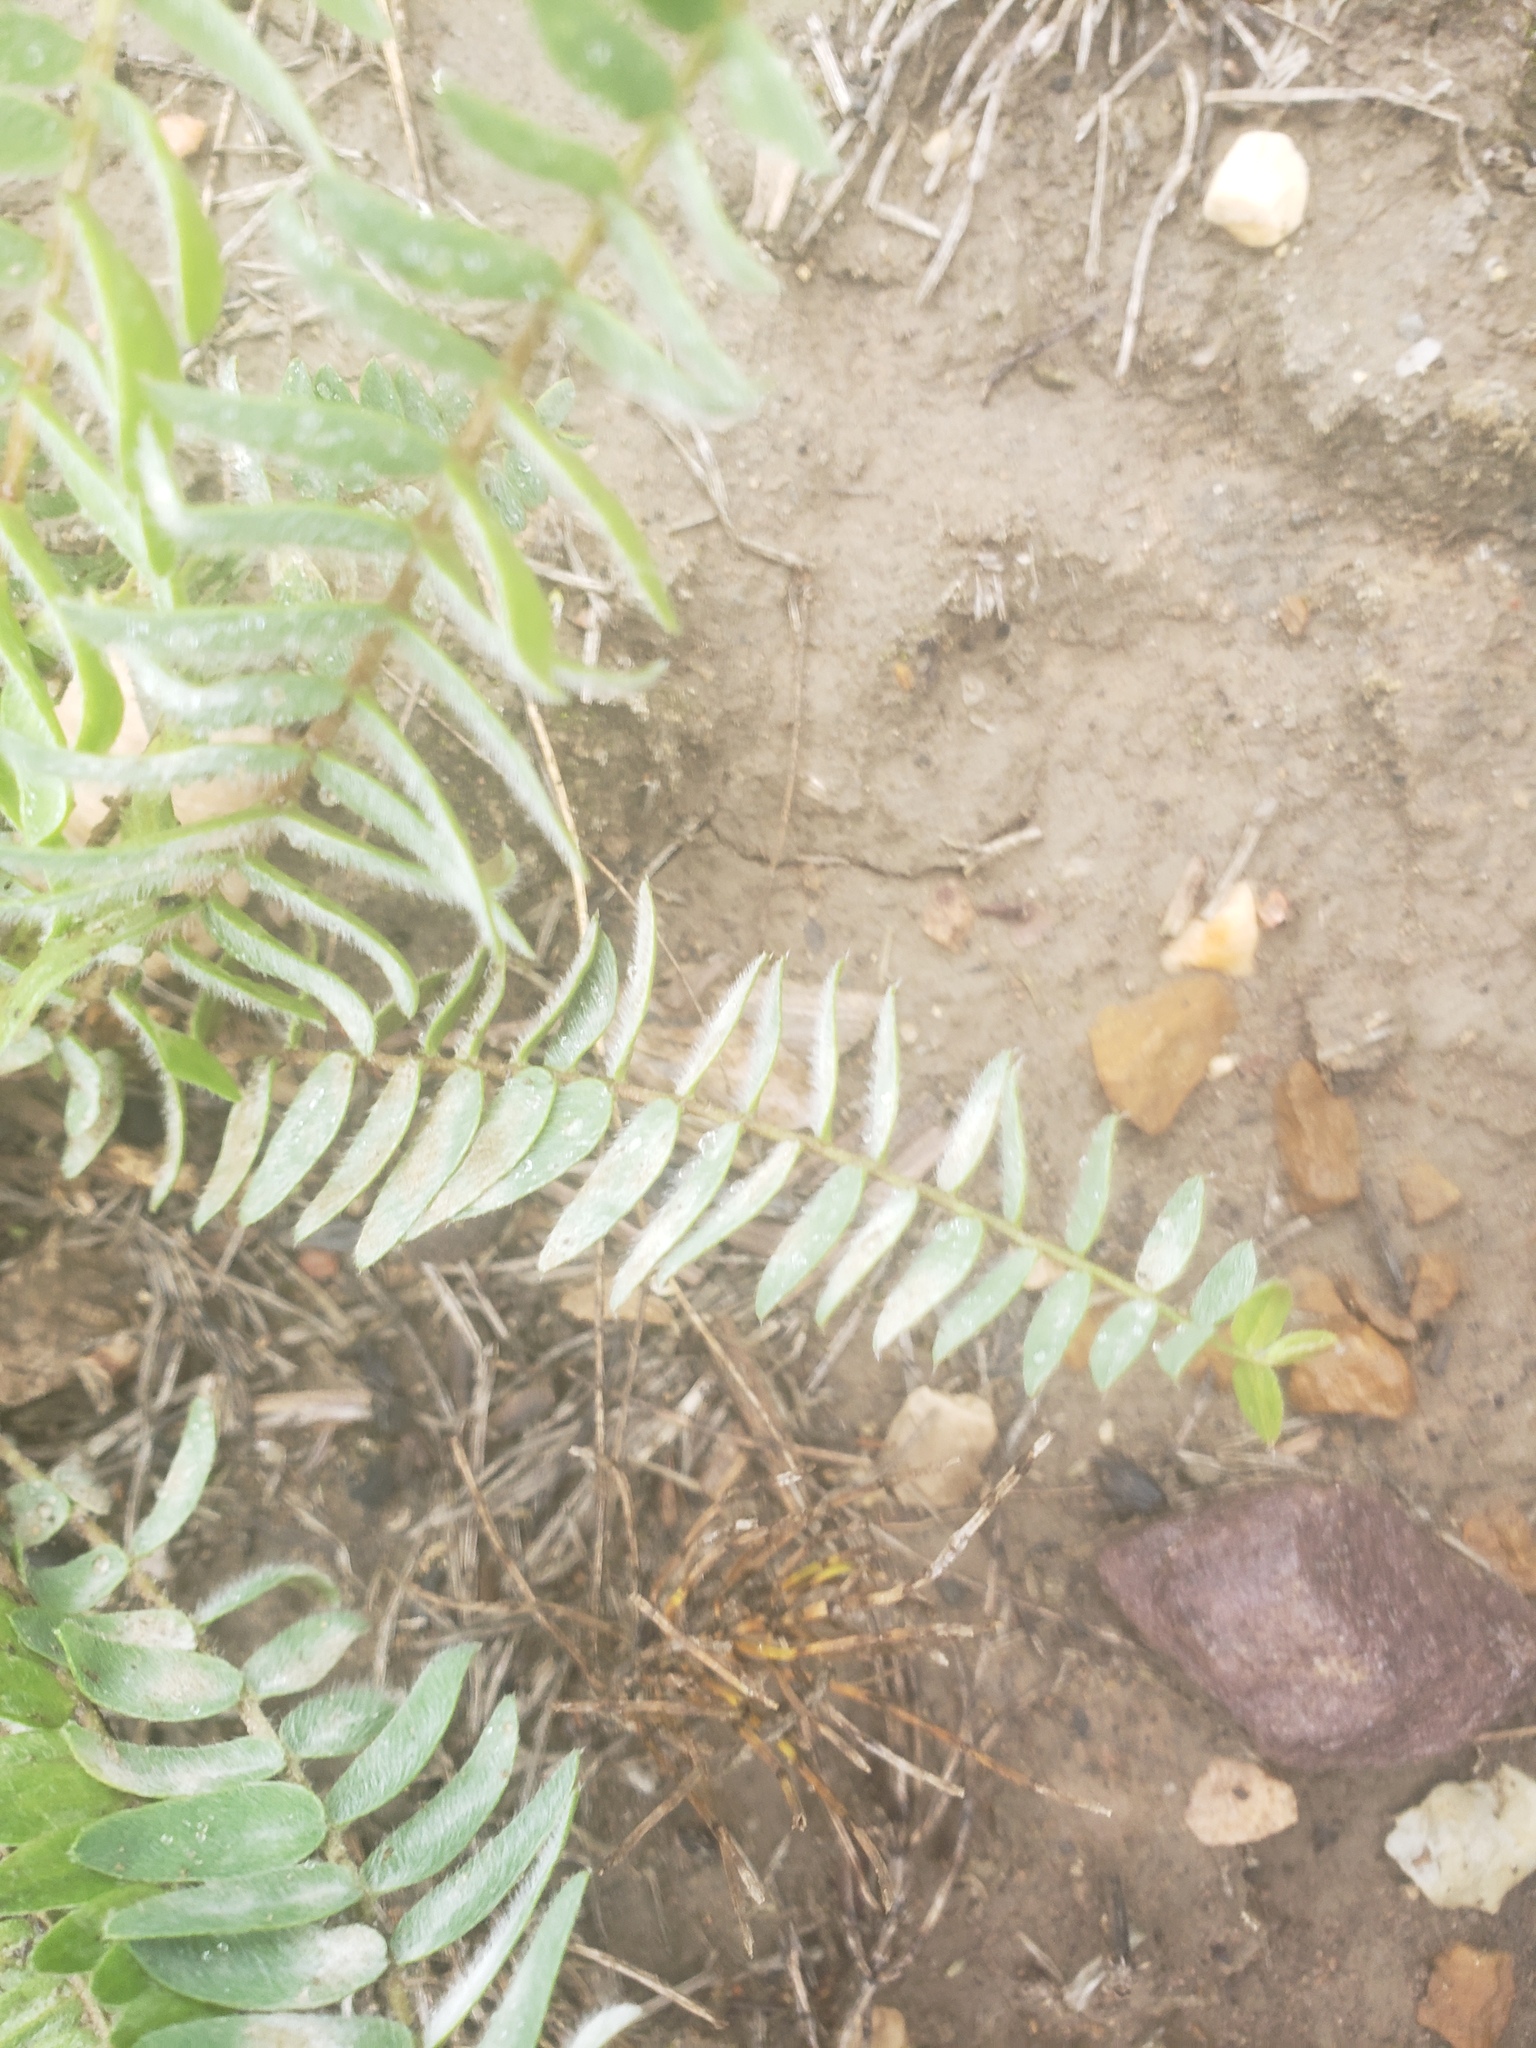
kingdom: Plantae
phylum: Tracheophyta
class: Magnoliopsida
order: Fabales
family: Fabaceae
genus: Oxytropis
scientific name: Oxytropis deflexa
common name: Stemmed oxytrope
